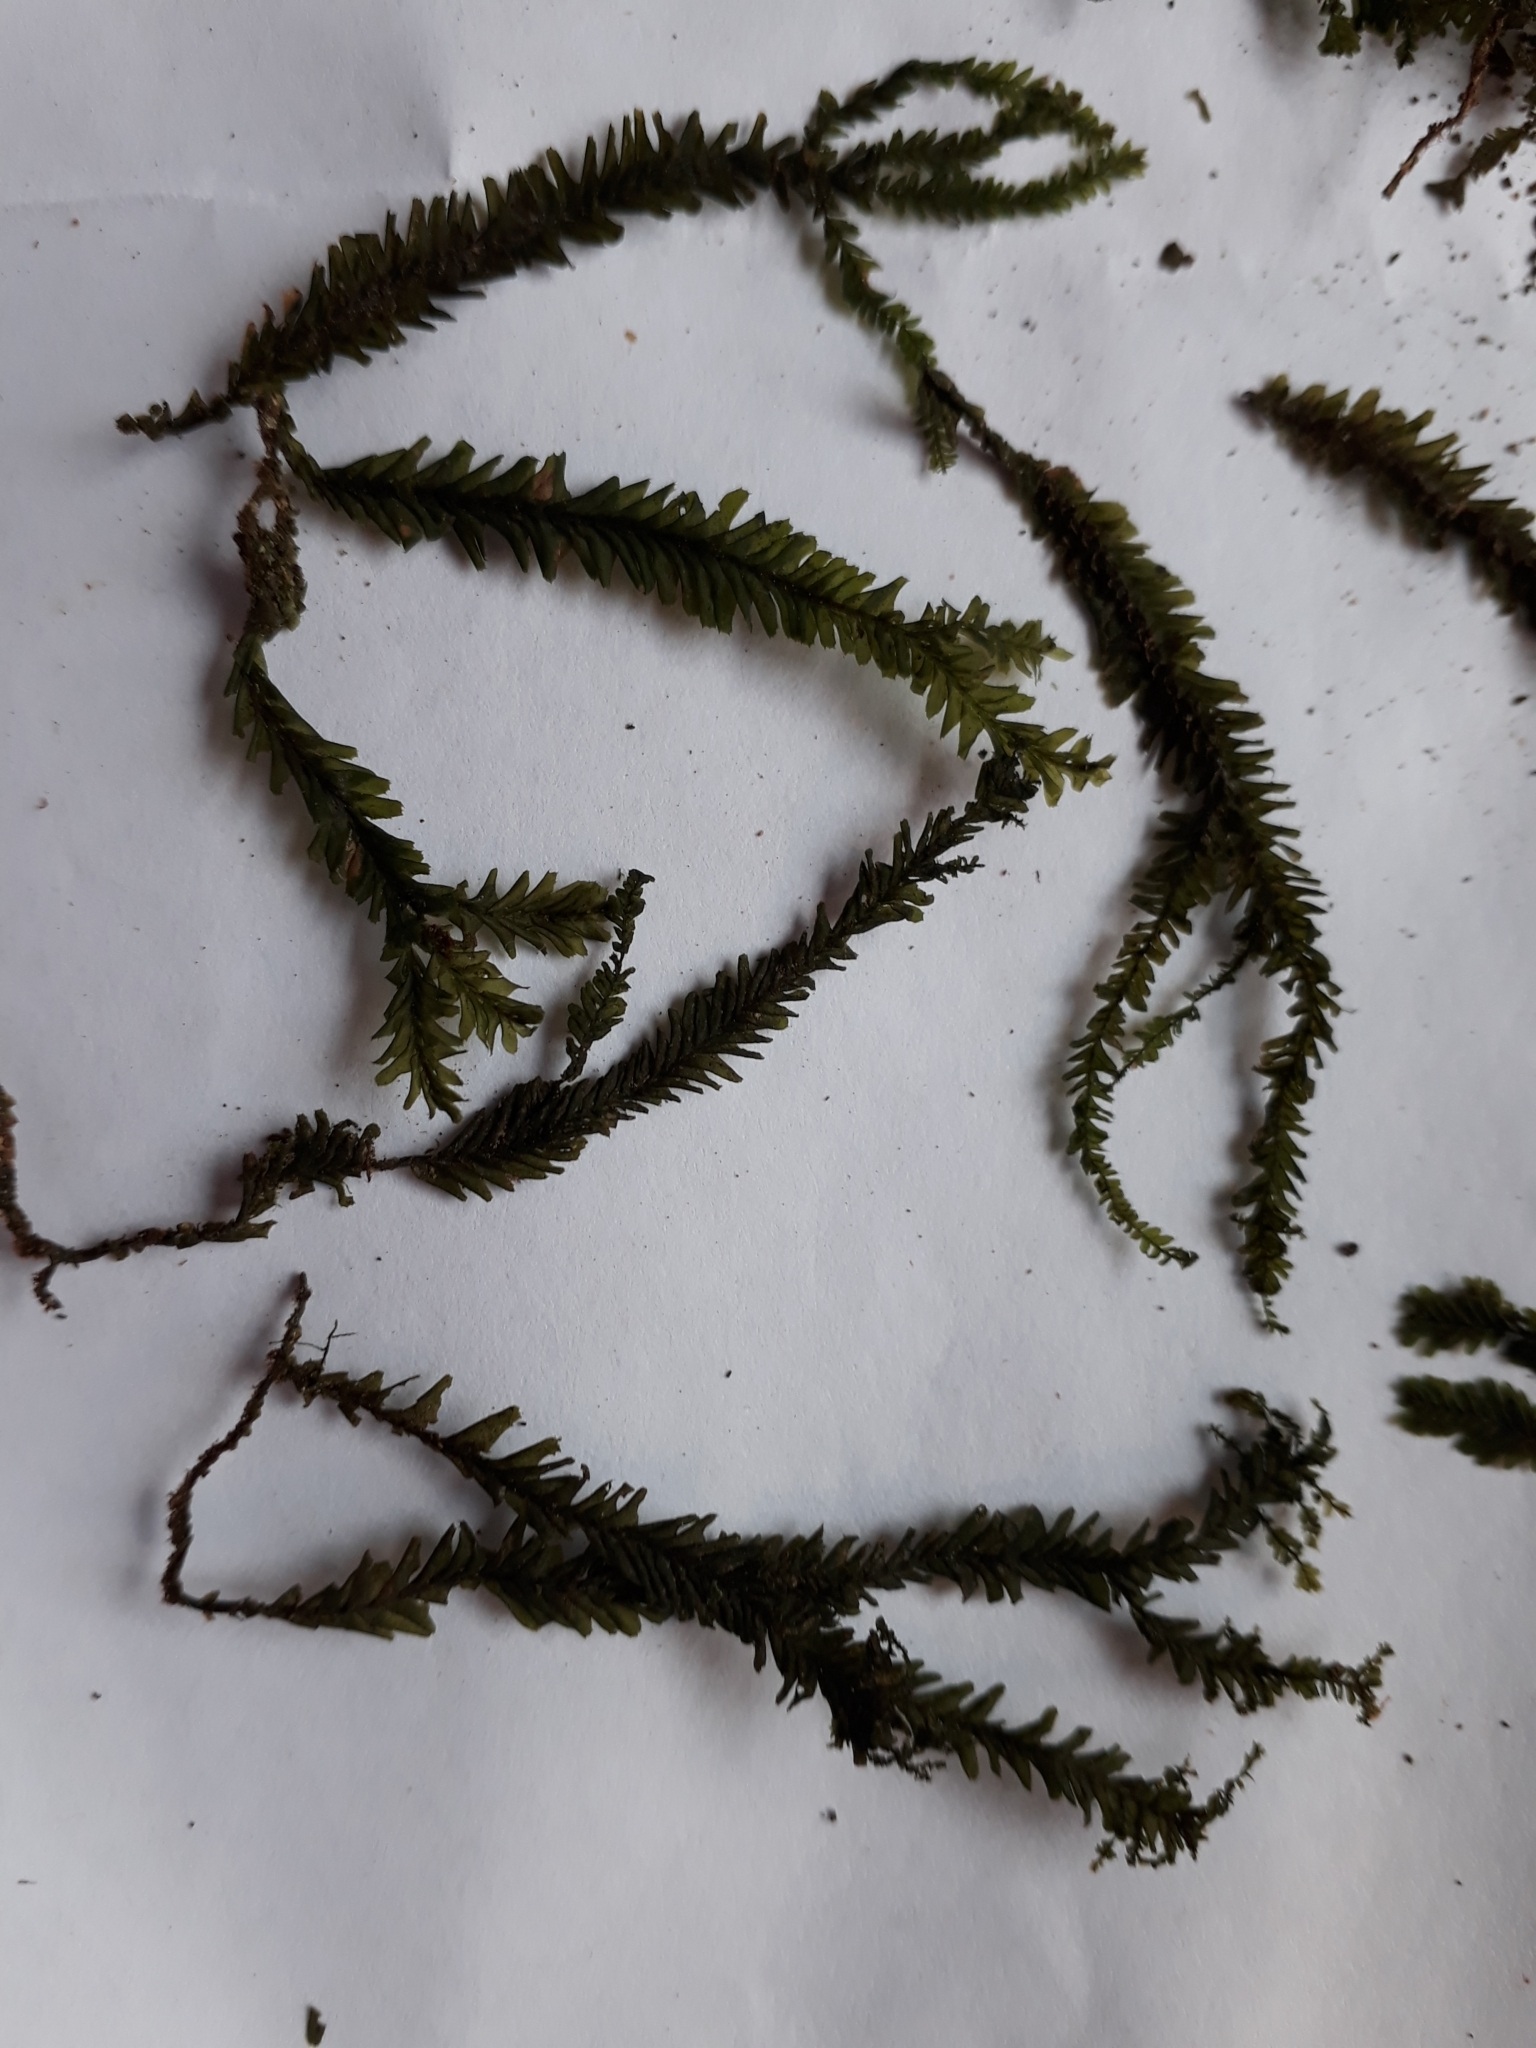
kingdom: Plantae
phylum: Marchantiophyta
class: Jungermanniopsida
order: Jungermanniales
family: Plagiochilaceae
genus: Plagiochila
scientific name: Plagiochila trispicata
